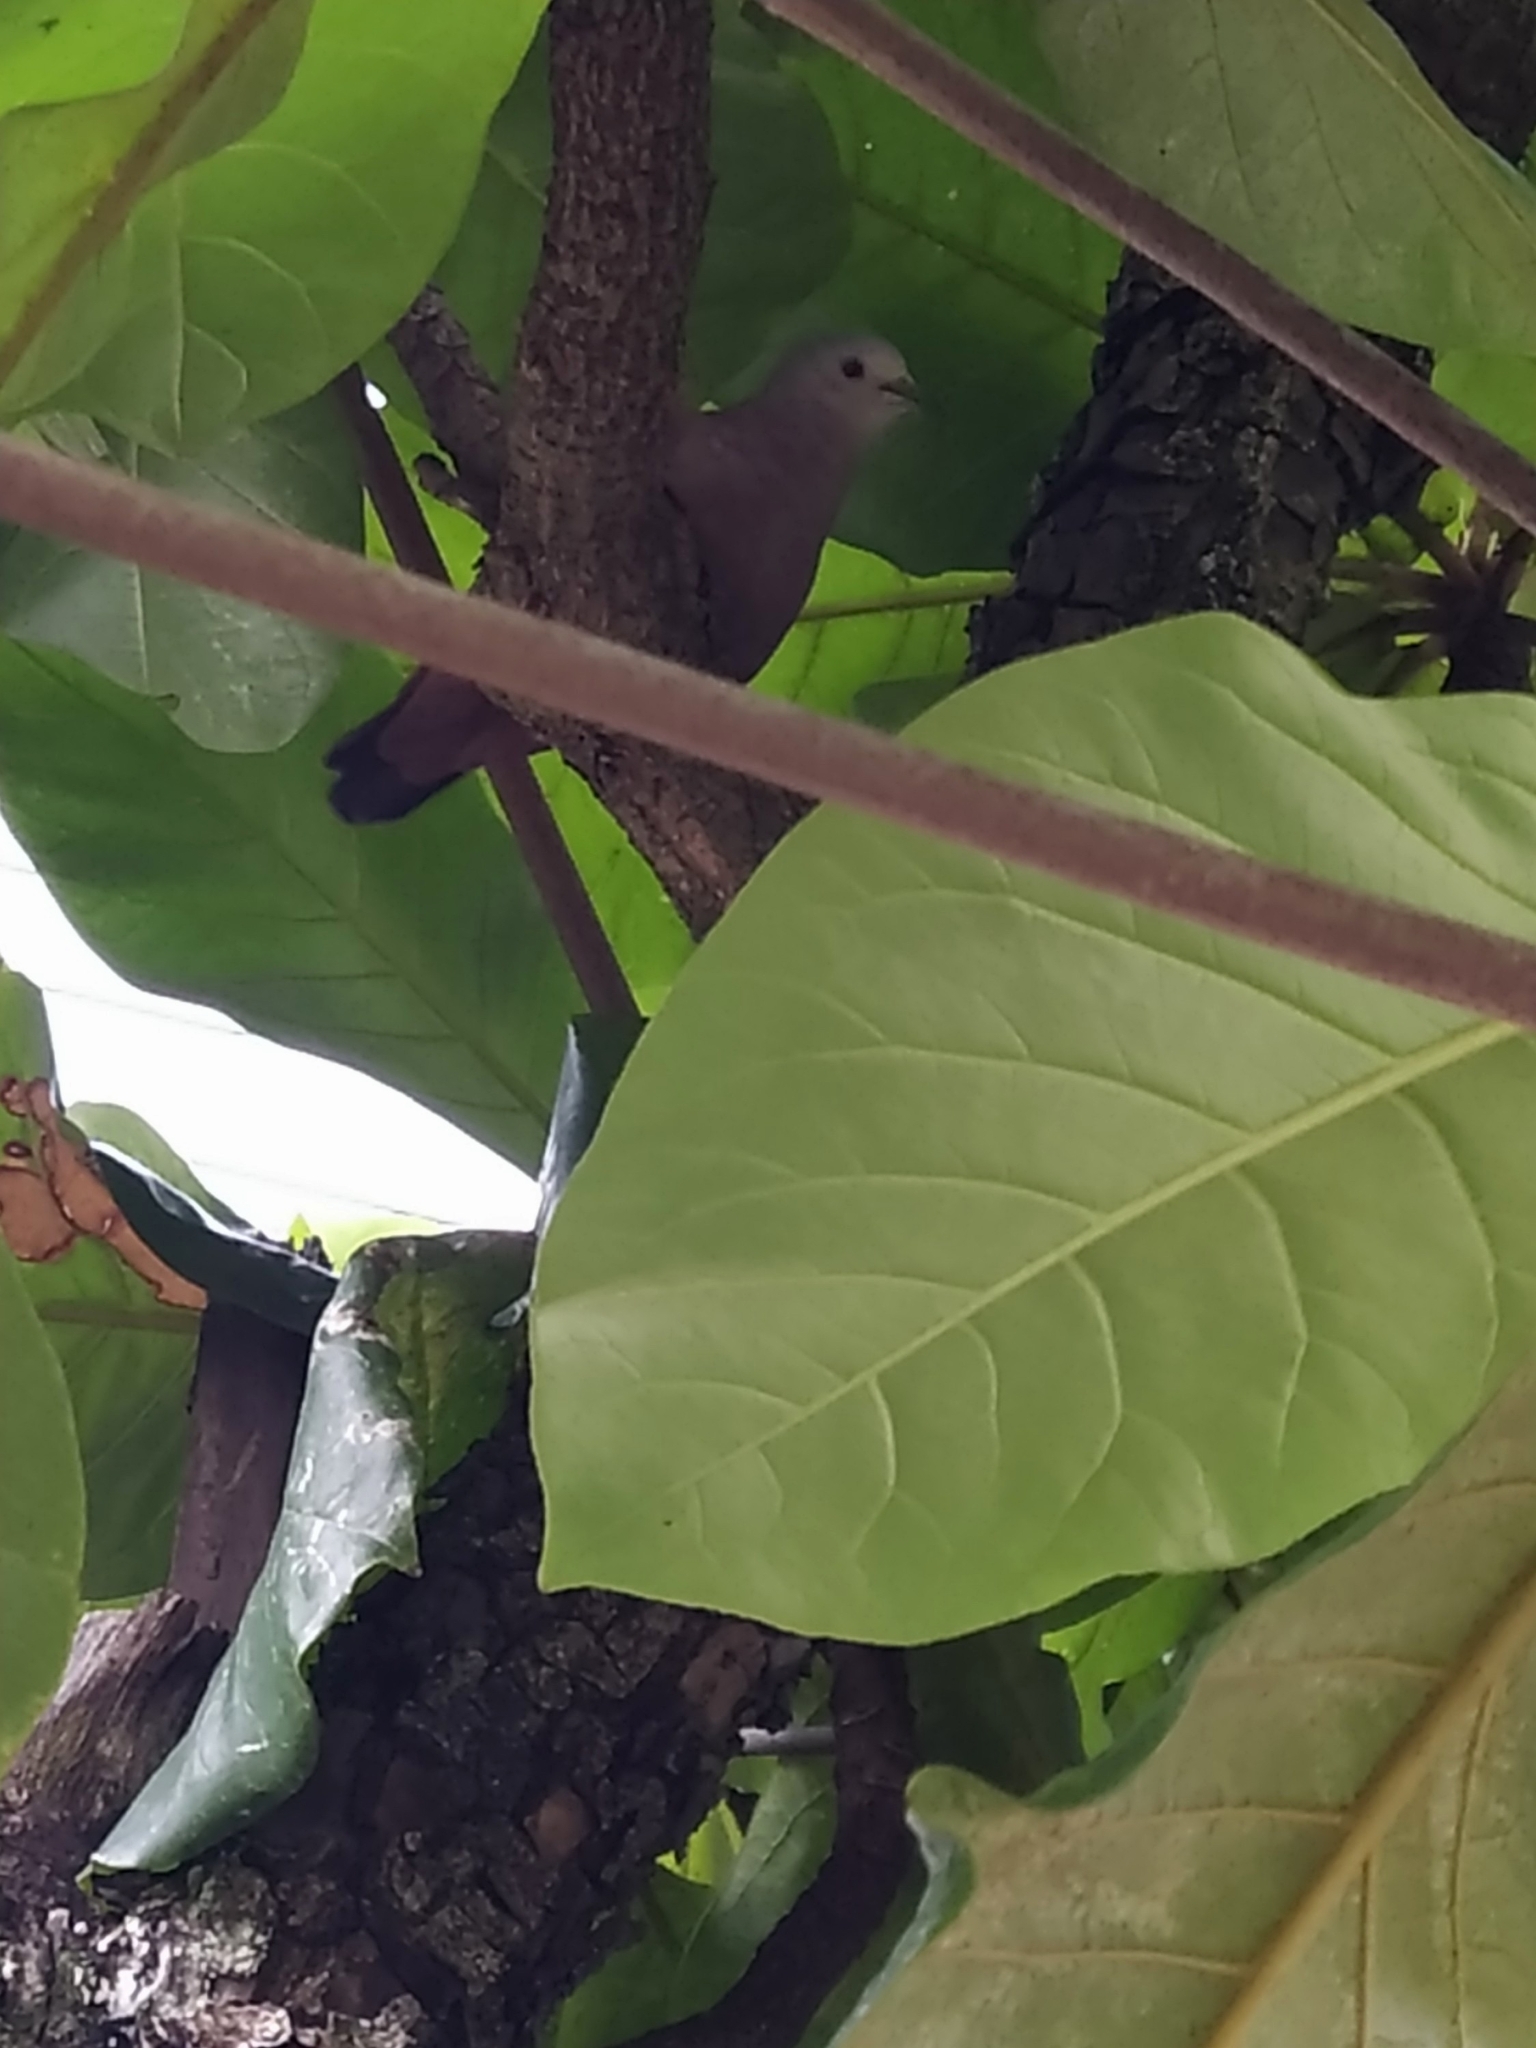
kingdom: Animalia
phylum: Chordata
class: Aves
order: Columbiformes
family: Columbidae
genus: Columbina
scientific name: Columbina talpacoti
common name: Ruddy ground dove
